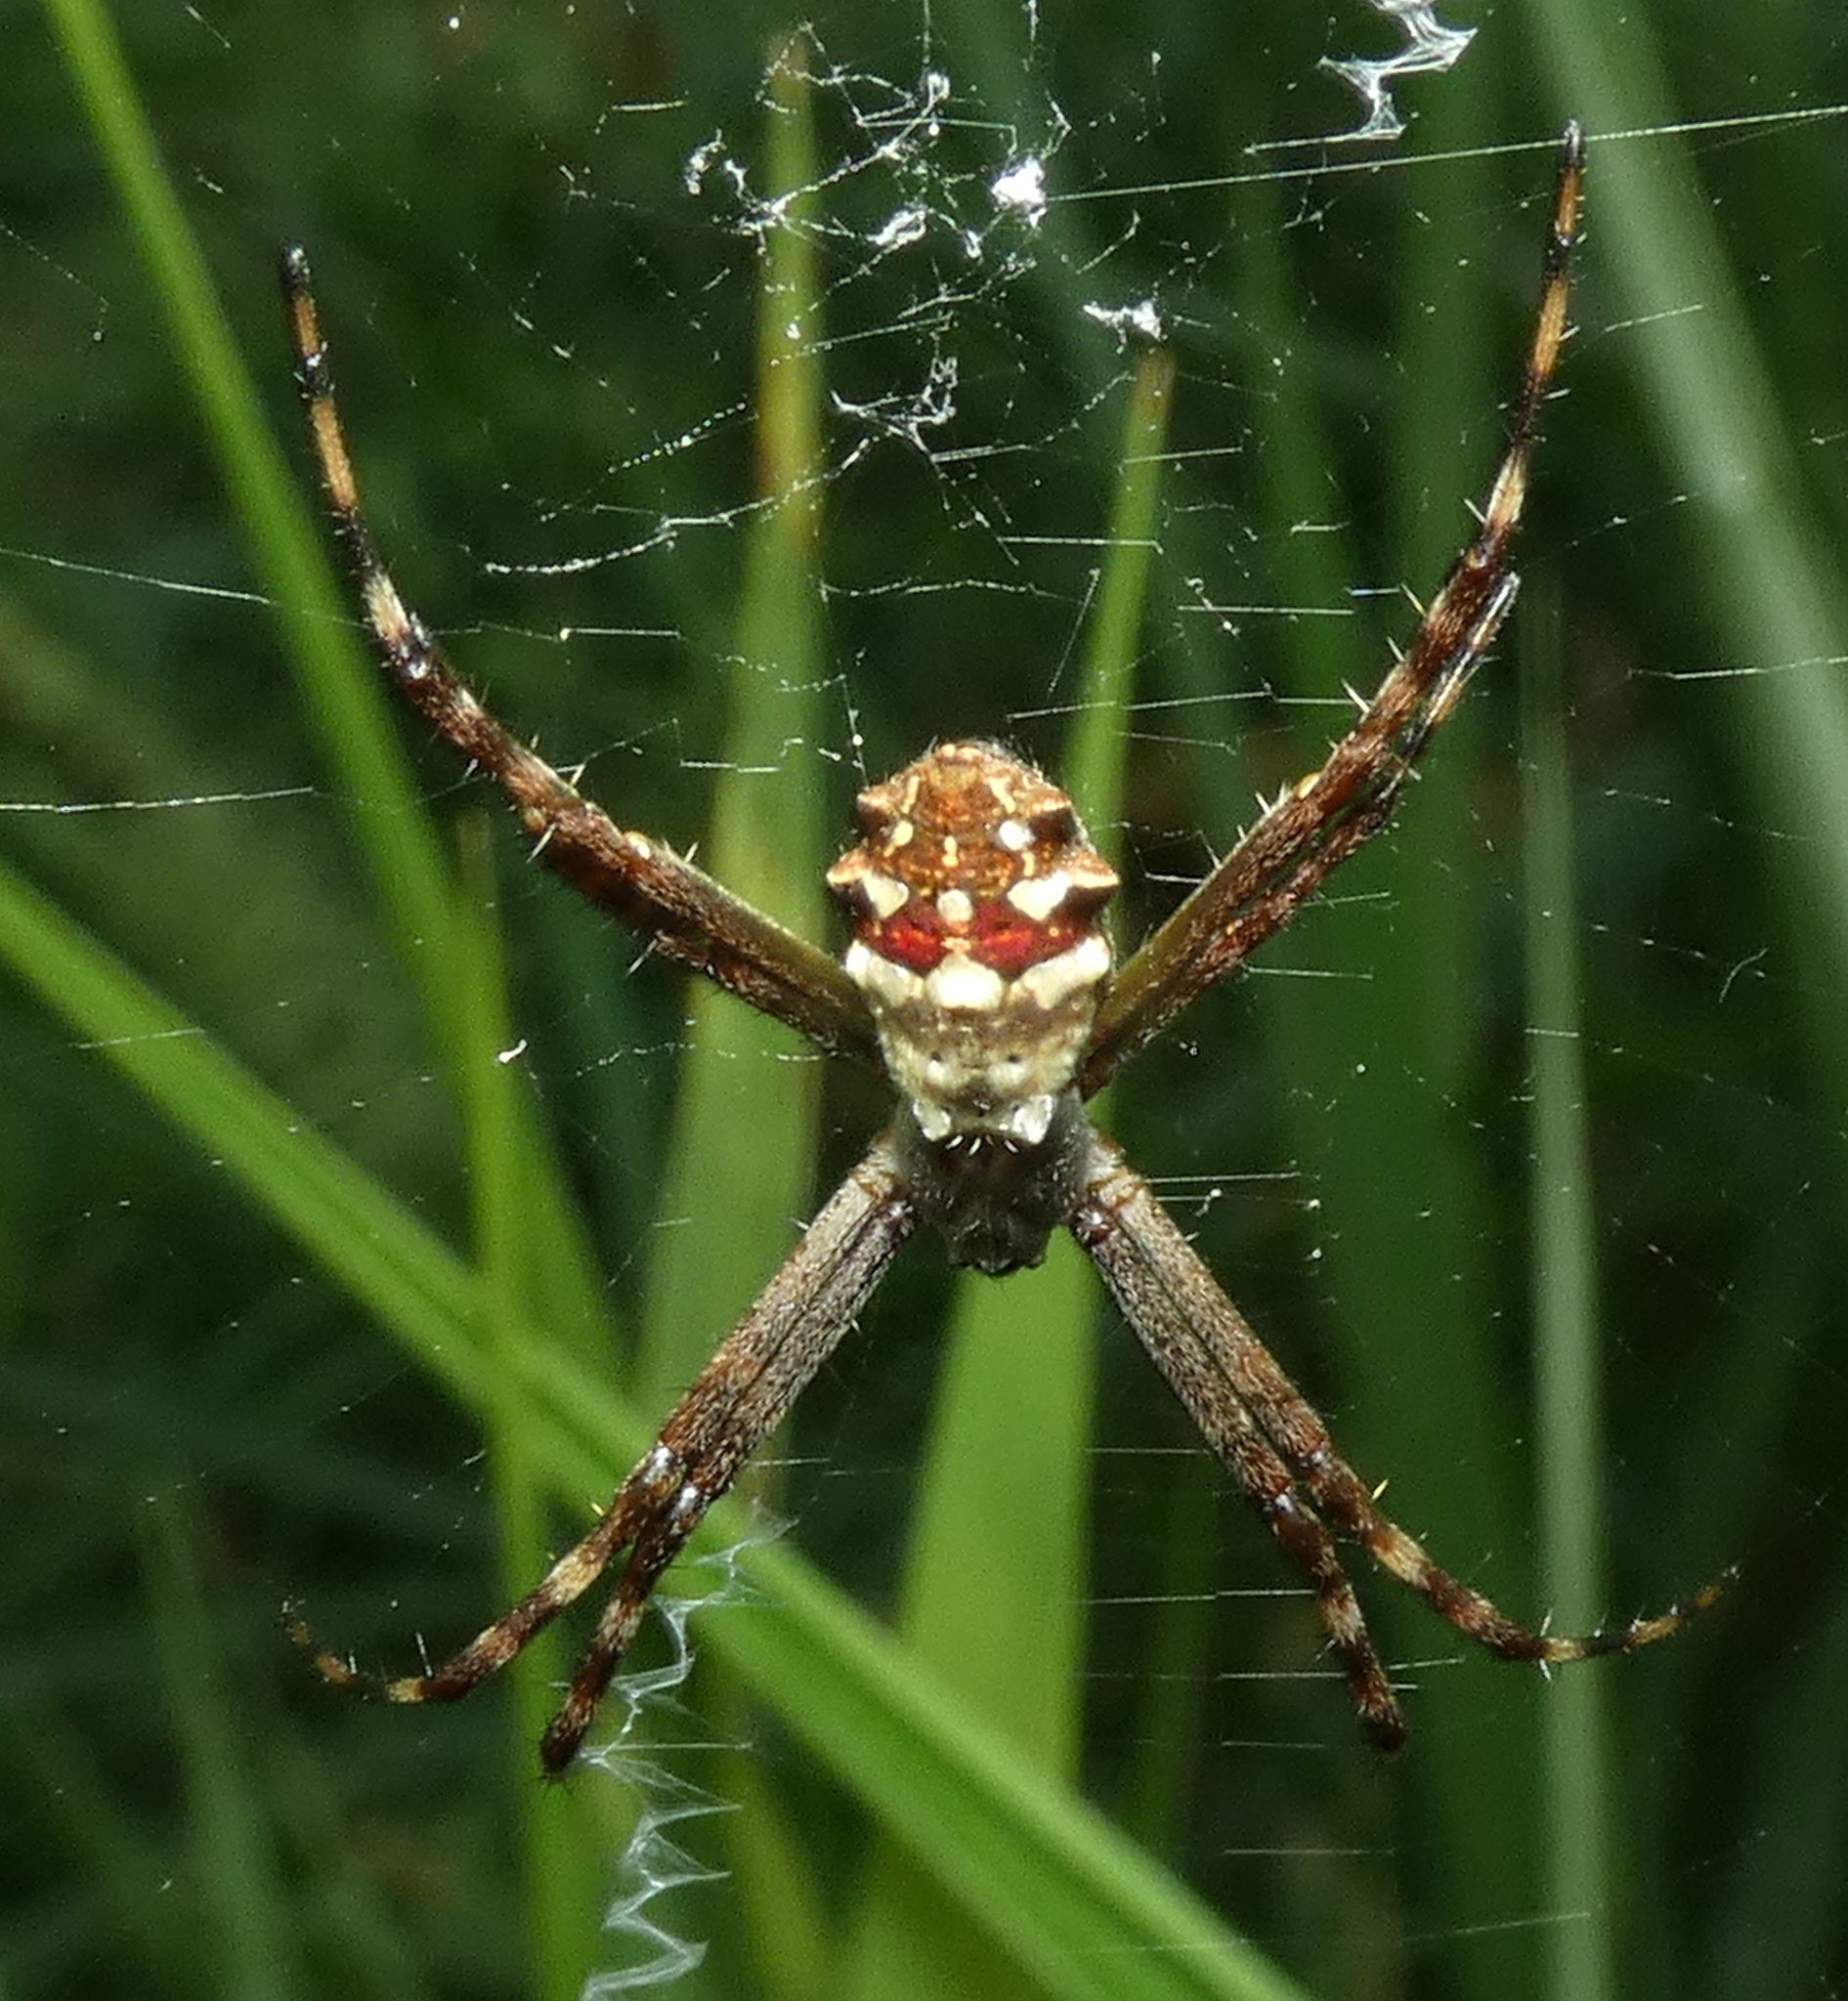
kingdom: Animalia
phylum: Arthropoda
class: Arachnida
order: Araneae
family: Araneidae
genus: Argiope
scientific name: Argiope argentata
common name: Orb weavers
